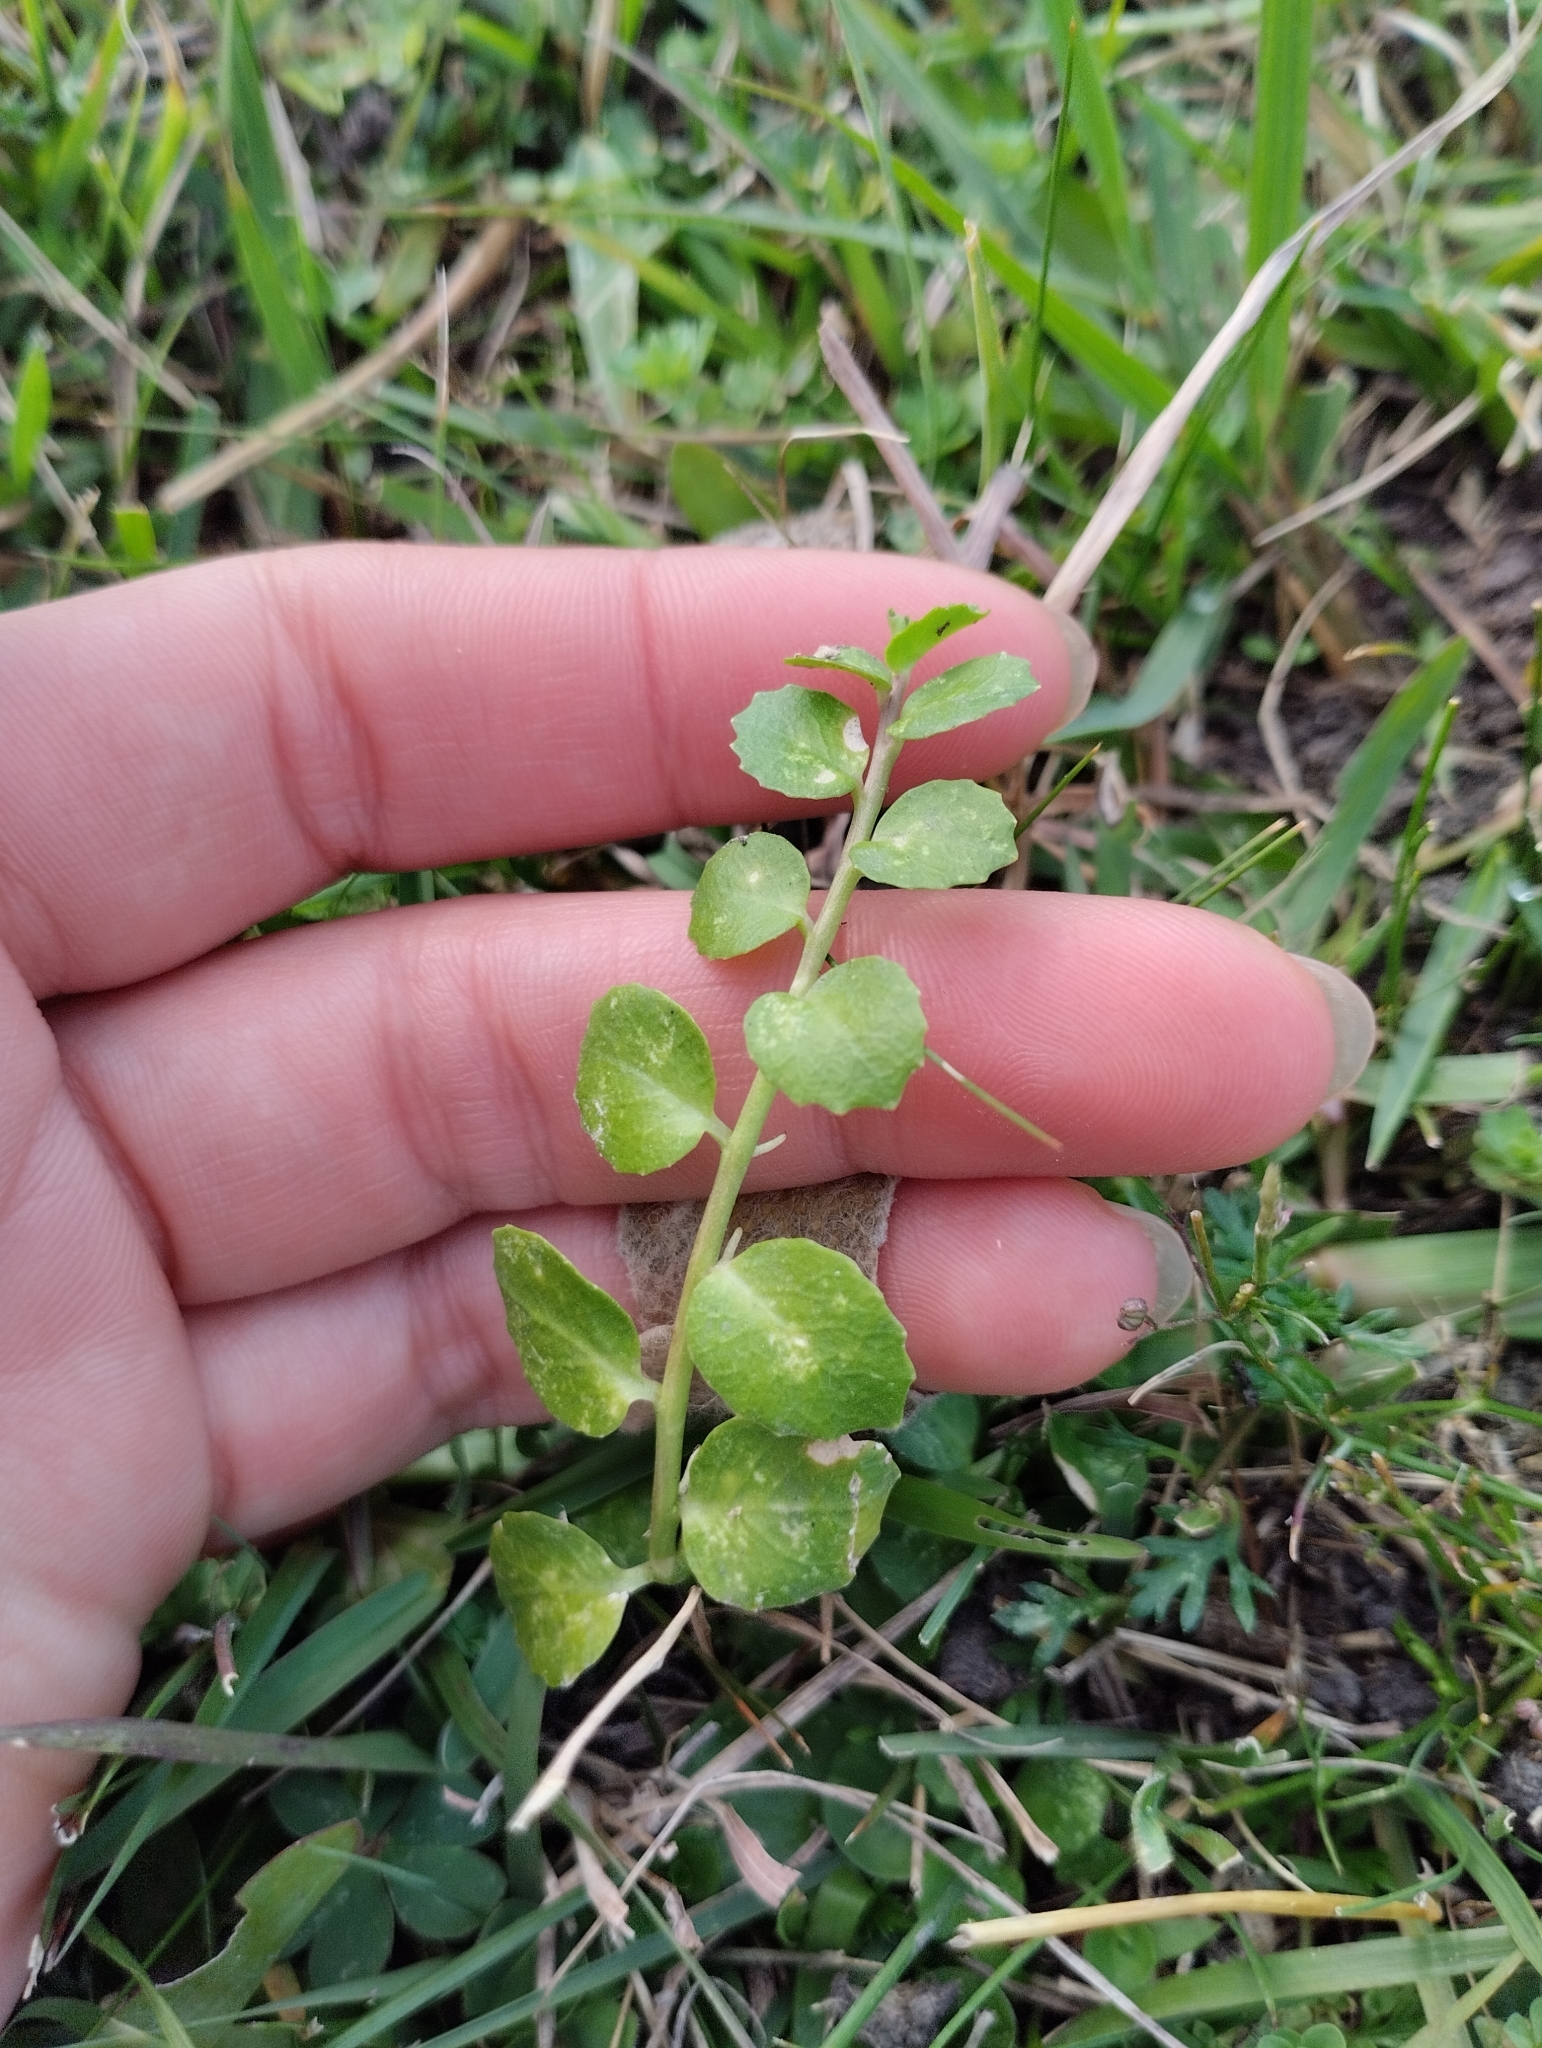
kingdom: Plantae
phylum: Tracheophyta
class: Magnoliopsida
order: Asterales
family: Campanulaceae
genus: Lobelia
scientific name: Lobelia hederacea
